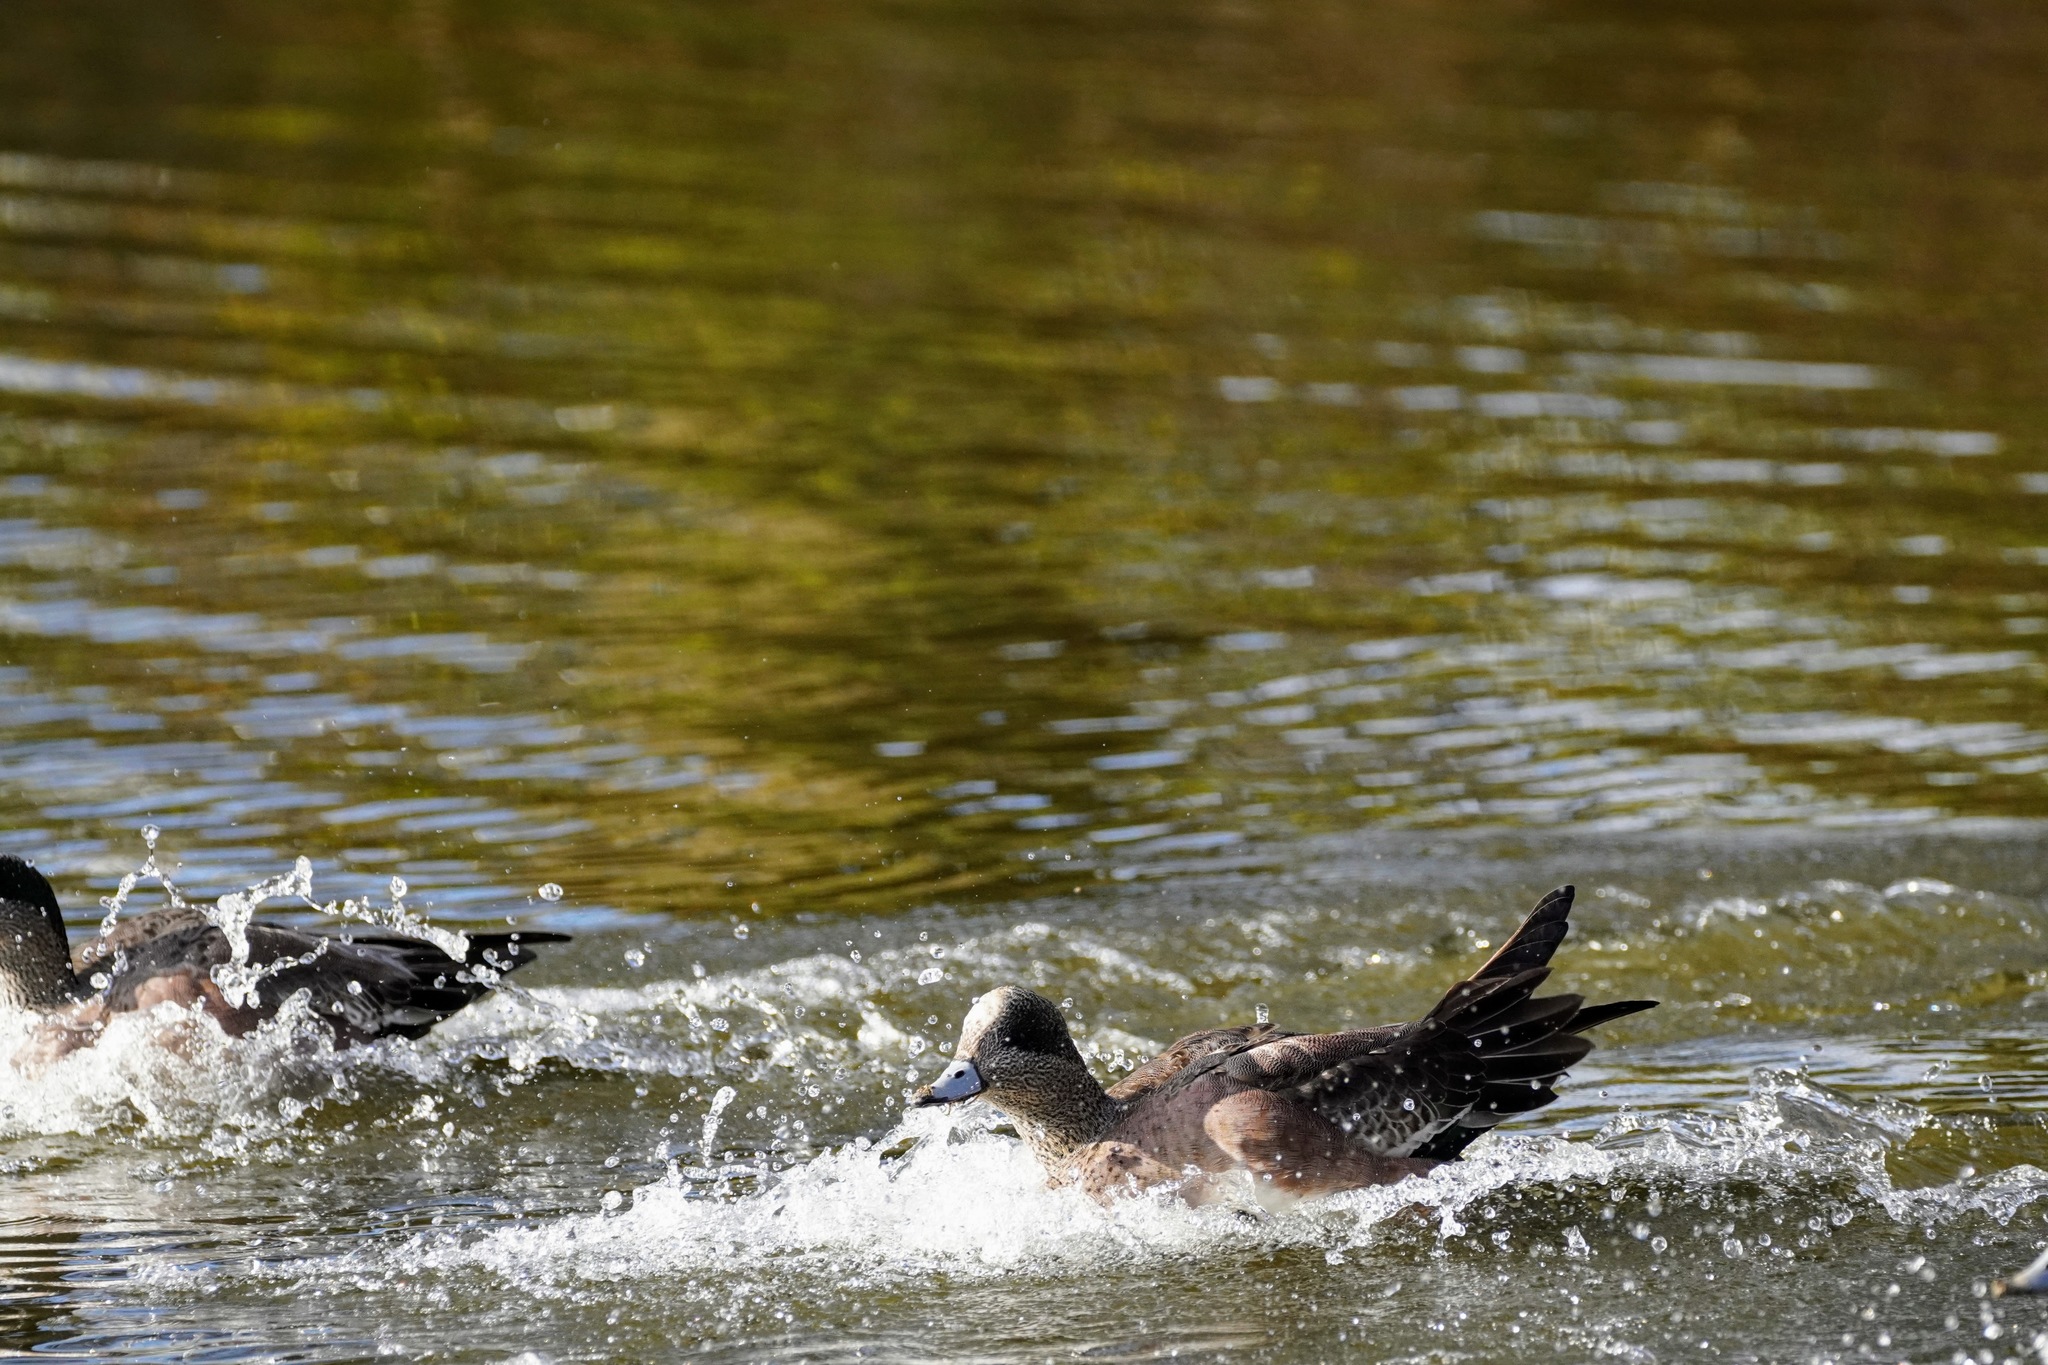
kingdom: Animalia
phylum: Chordata
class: Aves
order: Anseriformes
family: Anatidae
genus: Mareca
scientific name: Mareca americana
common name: American wigeon
